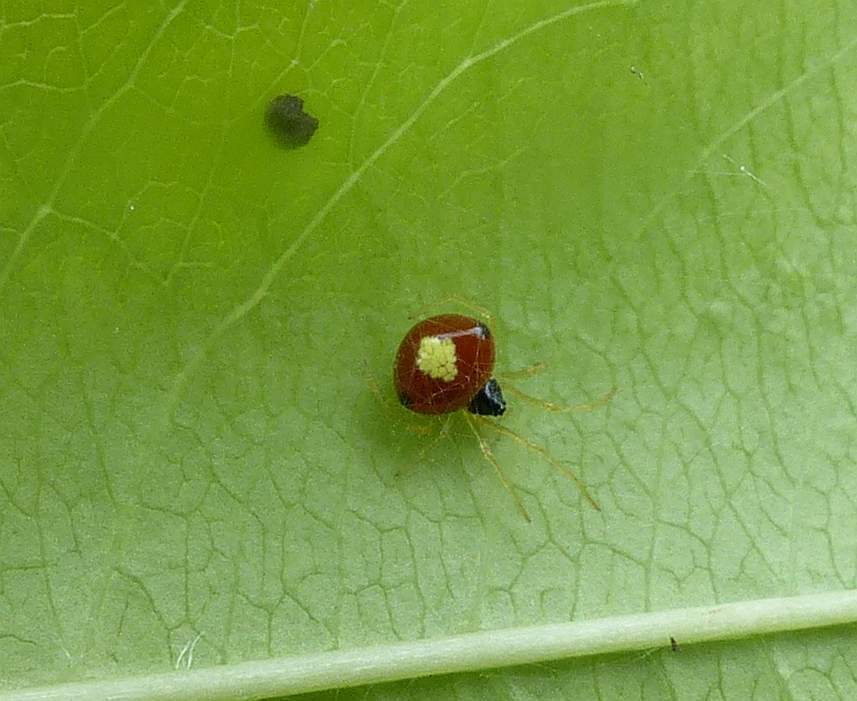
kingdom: Animalia
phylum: Arthropoda
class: Arachnida
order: Araneae
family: Theridiidae
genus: Theridula
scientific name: Theridula emertoni
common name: Emerton's bitubercled cobweaver
